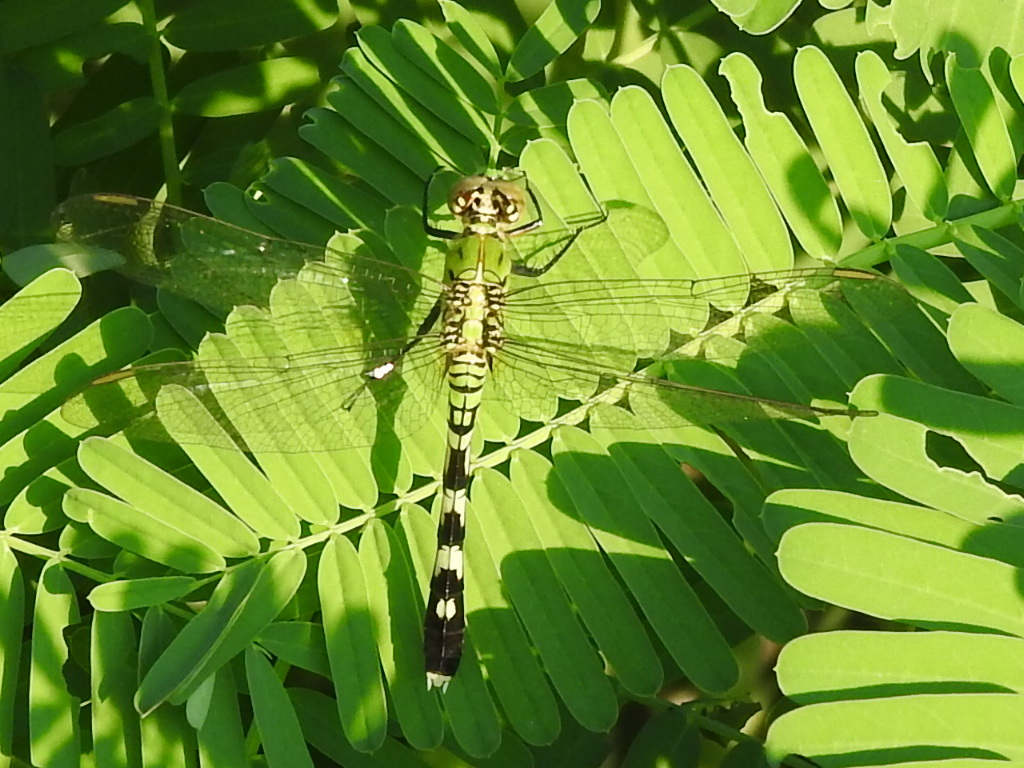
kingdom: Animalia
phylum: Arthropoda
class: Insecta
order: Odonata
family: Libellulidae
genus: Erythemis
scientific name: Erythemis simplicicollis
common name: Eastern pondhawk
